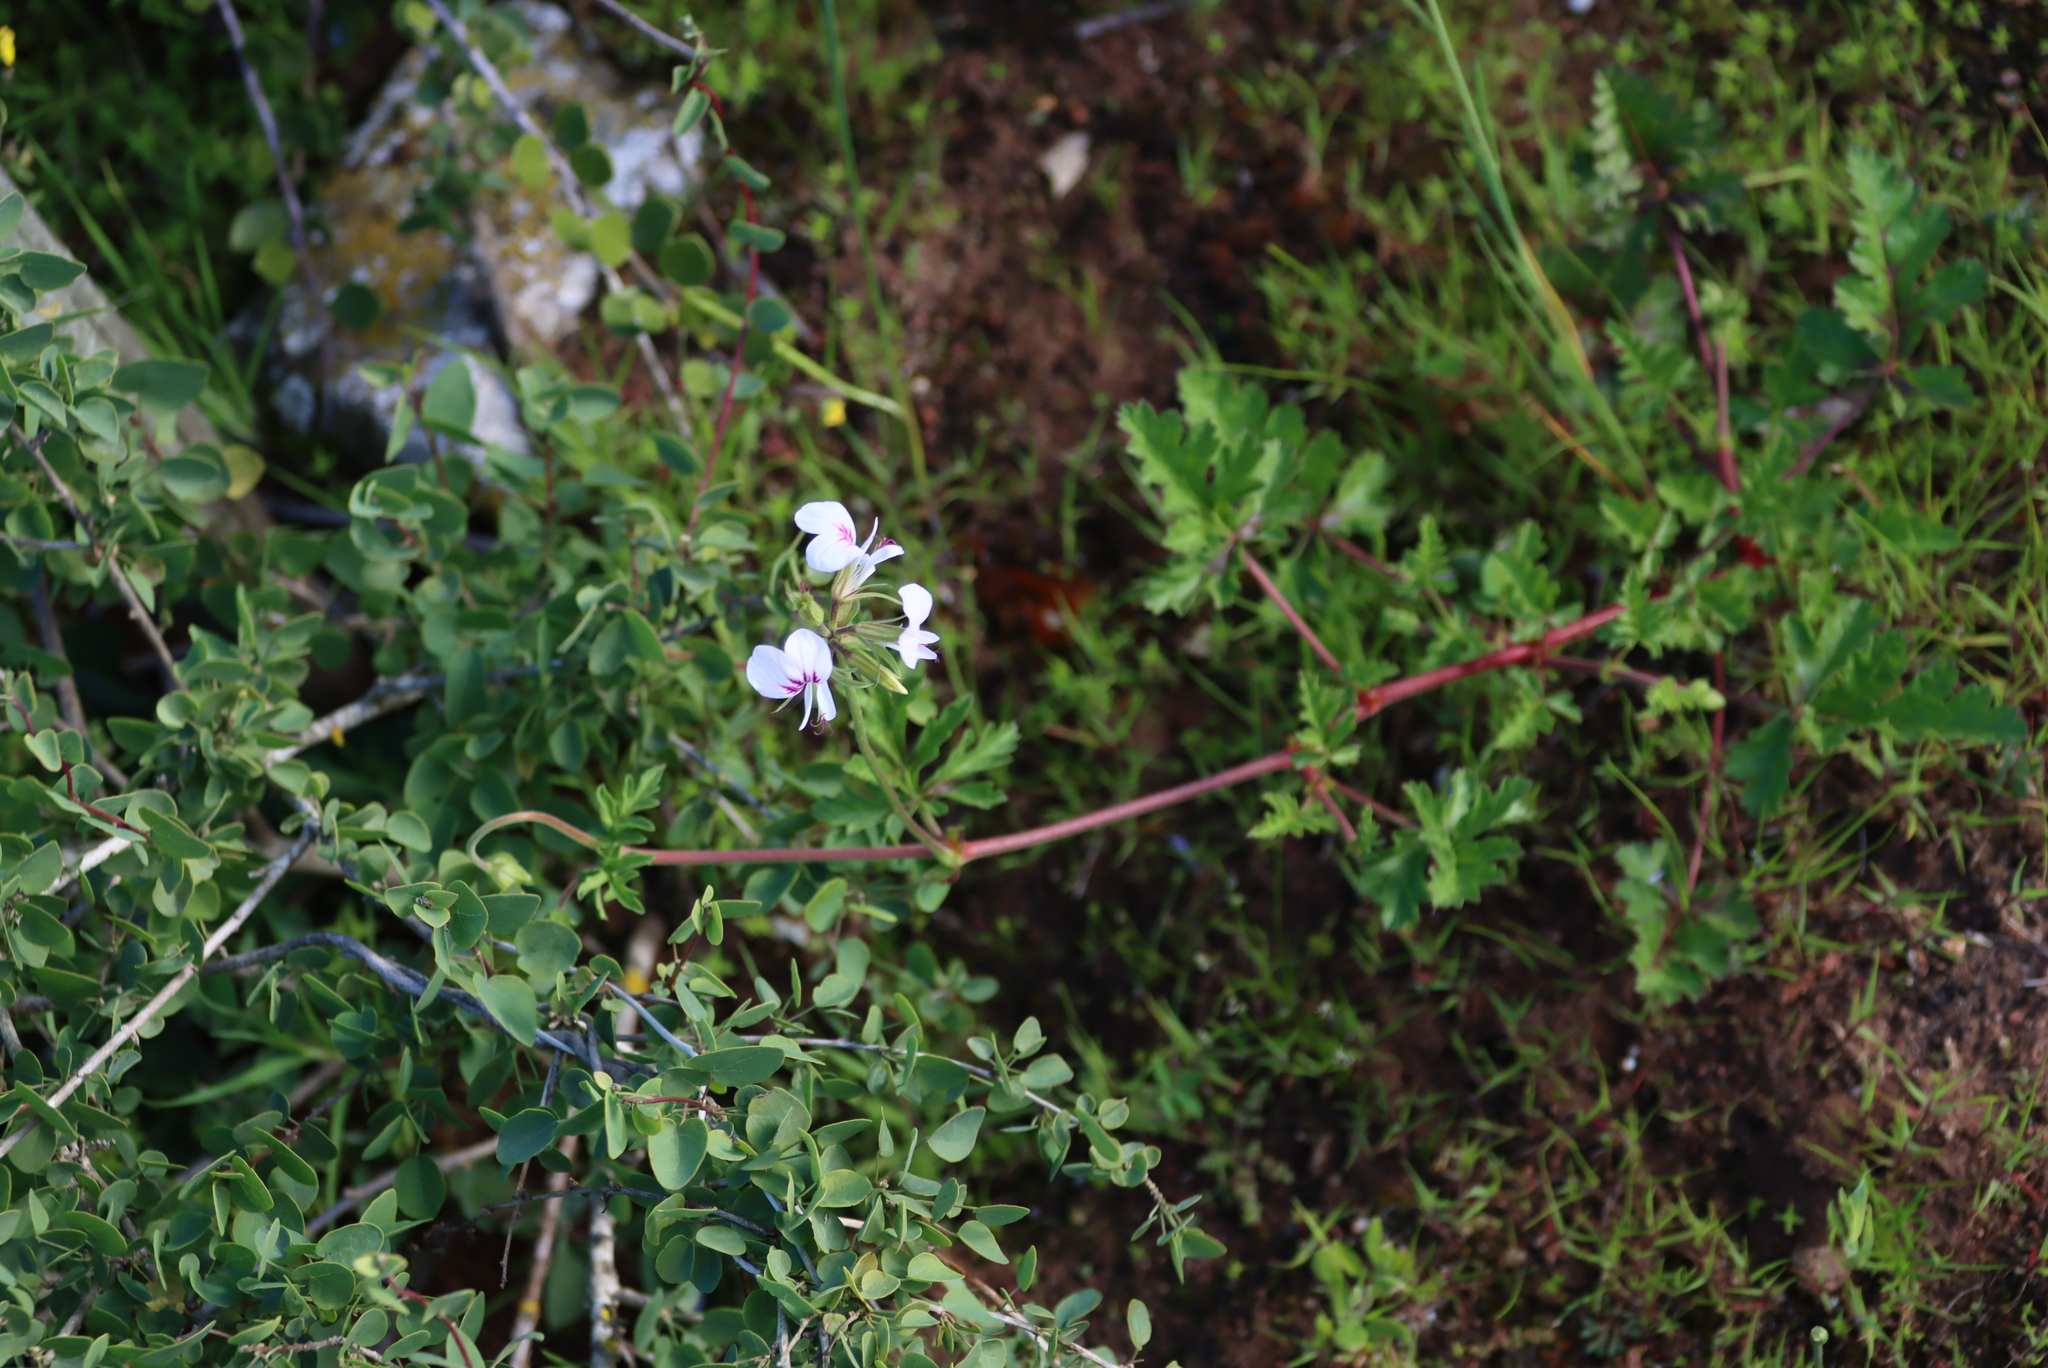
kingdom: Plantae
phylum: Tracheophyta
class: Magnoliopsida
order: Geraniales
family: Geraniaceae
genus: Pelargonium
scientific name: Pelargonium myrrhifolium
